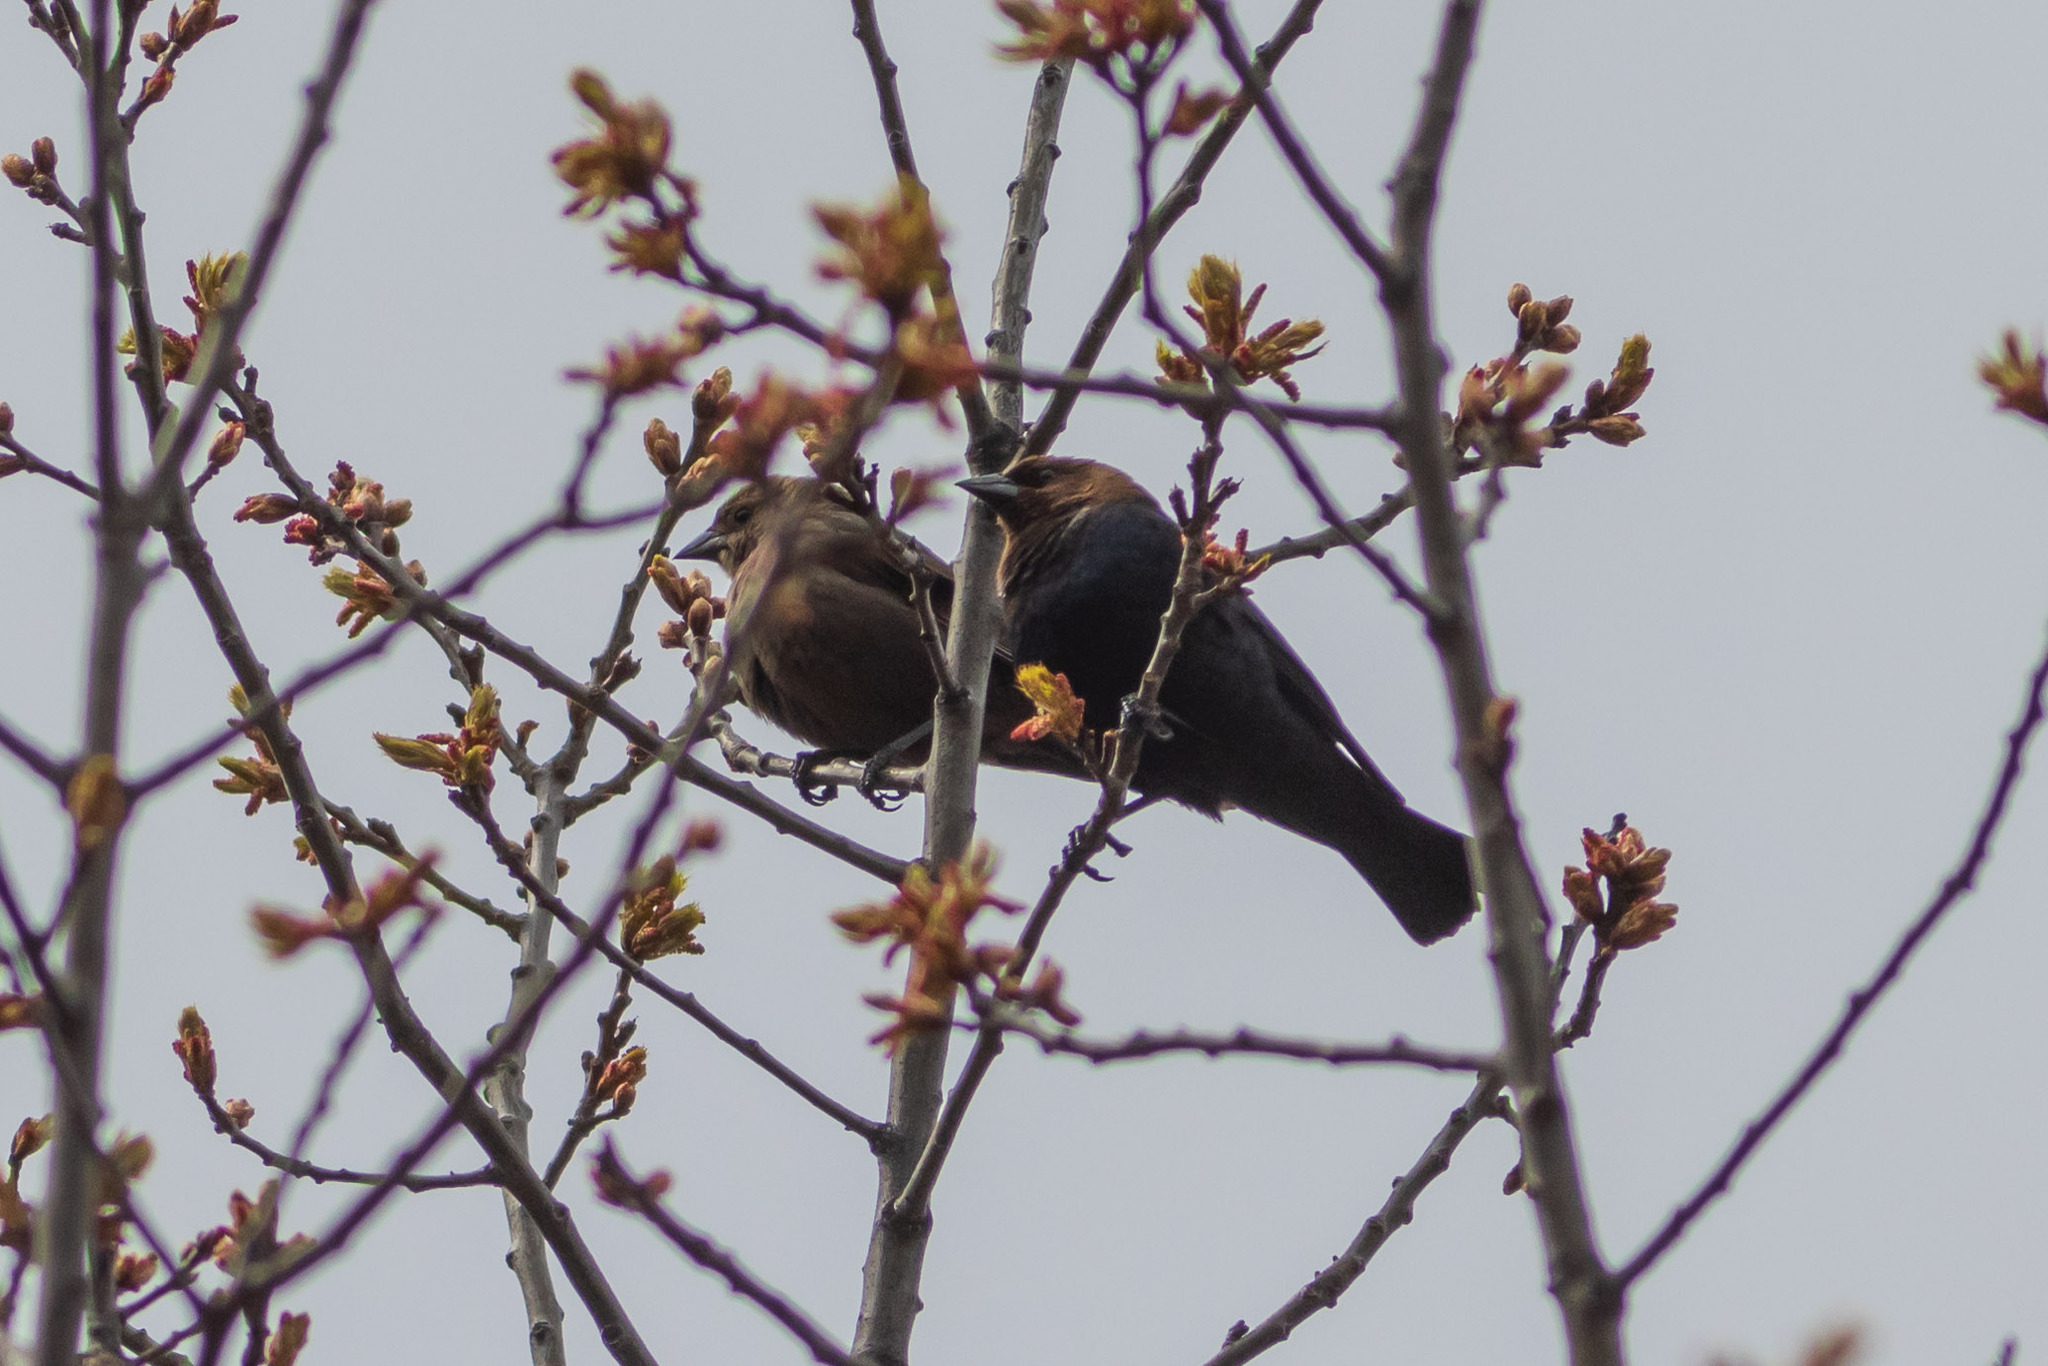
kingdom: Animalia
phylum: Chordata
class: Aves
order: Passeriformes
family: Icteridae
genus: Molothrus
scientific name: Molothrus ater
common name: Brown-headed cowbird
